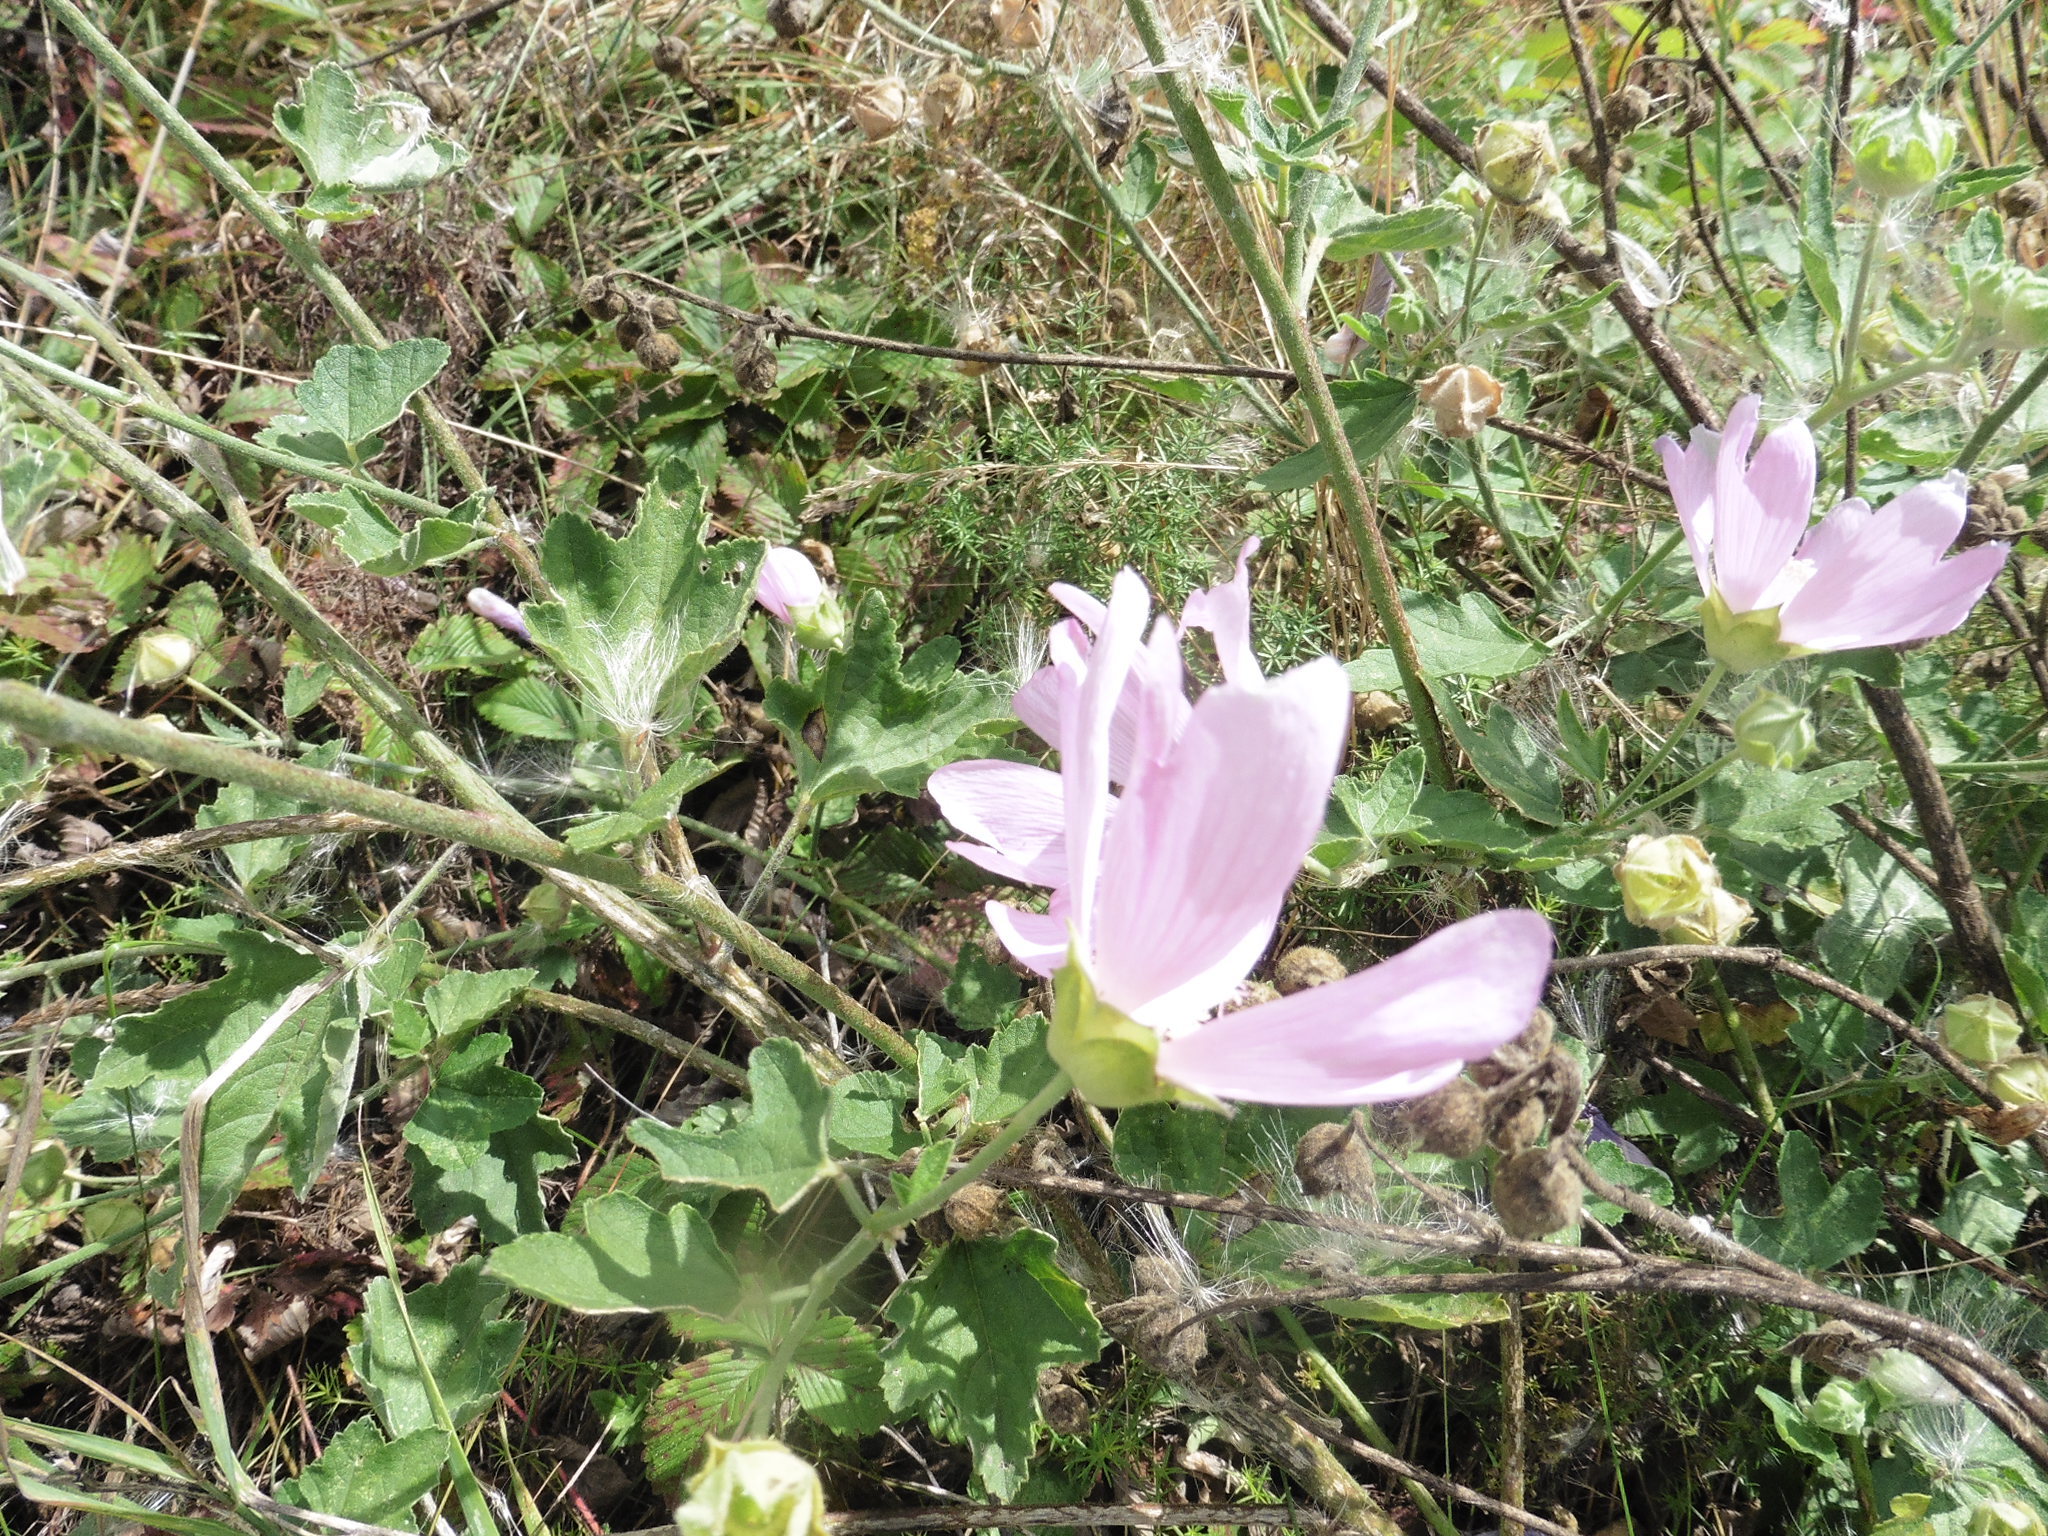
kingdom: Plantae
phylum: Tracheophyta
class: Magnoliopsida
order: Malvales
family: Malvaceae
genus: Malva
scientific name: Malva thuringiaca
